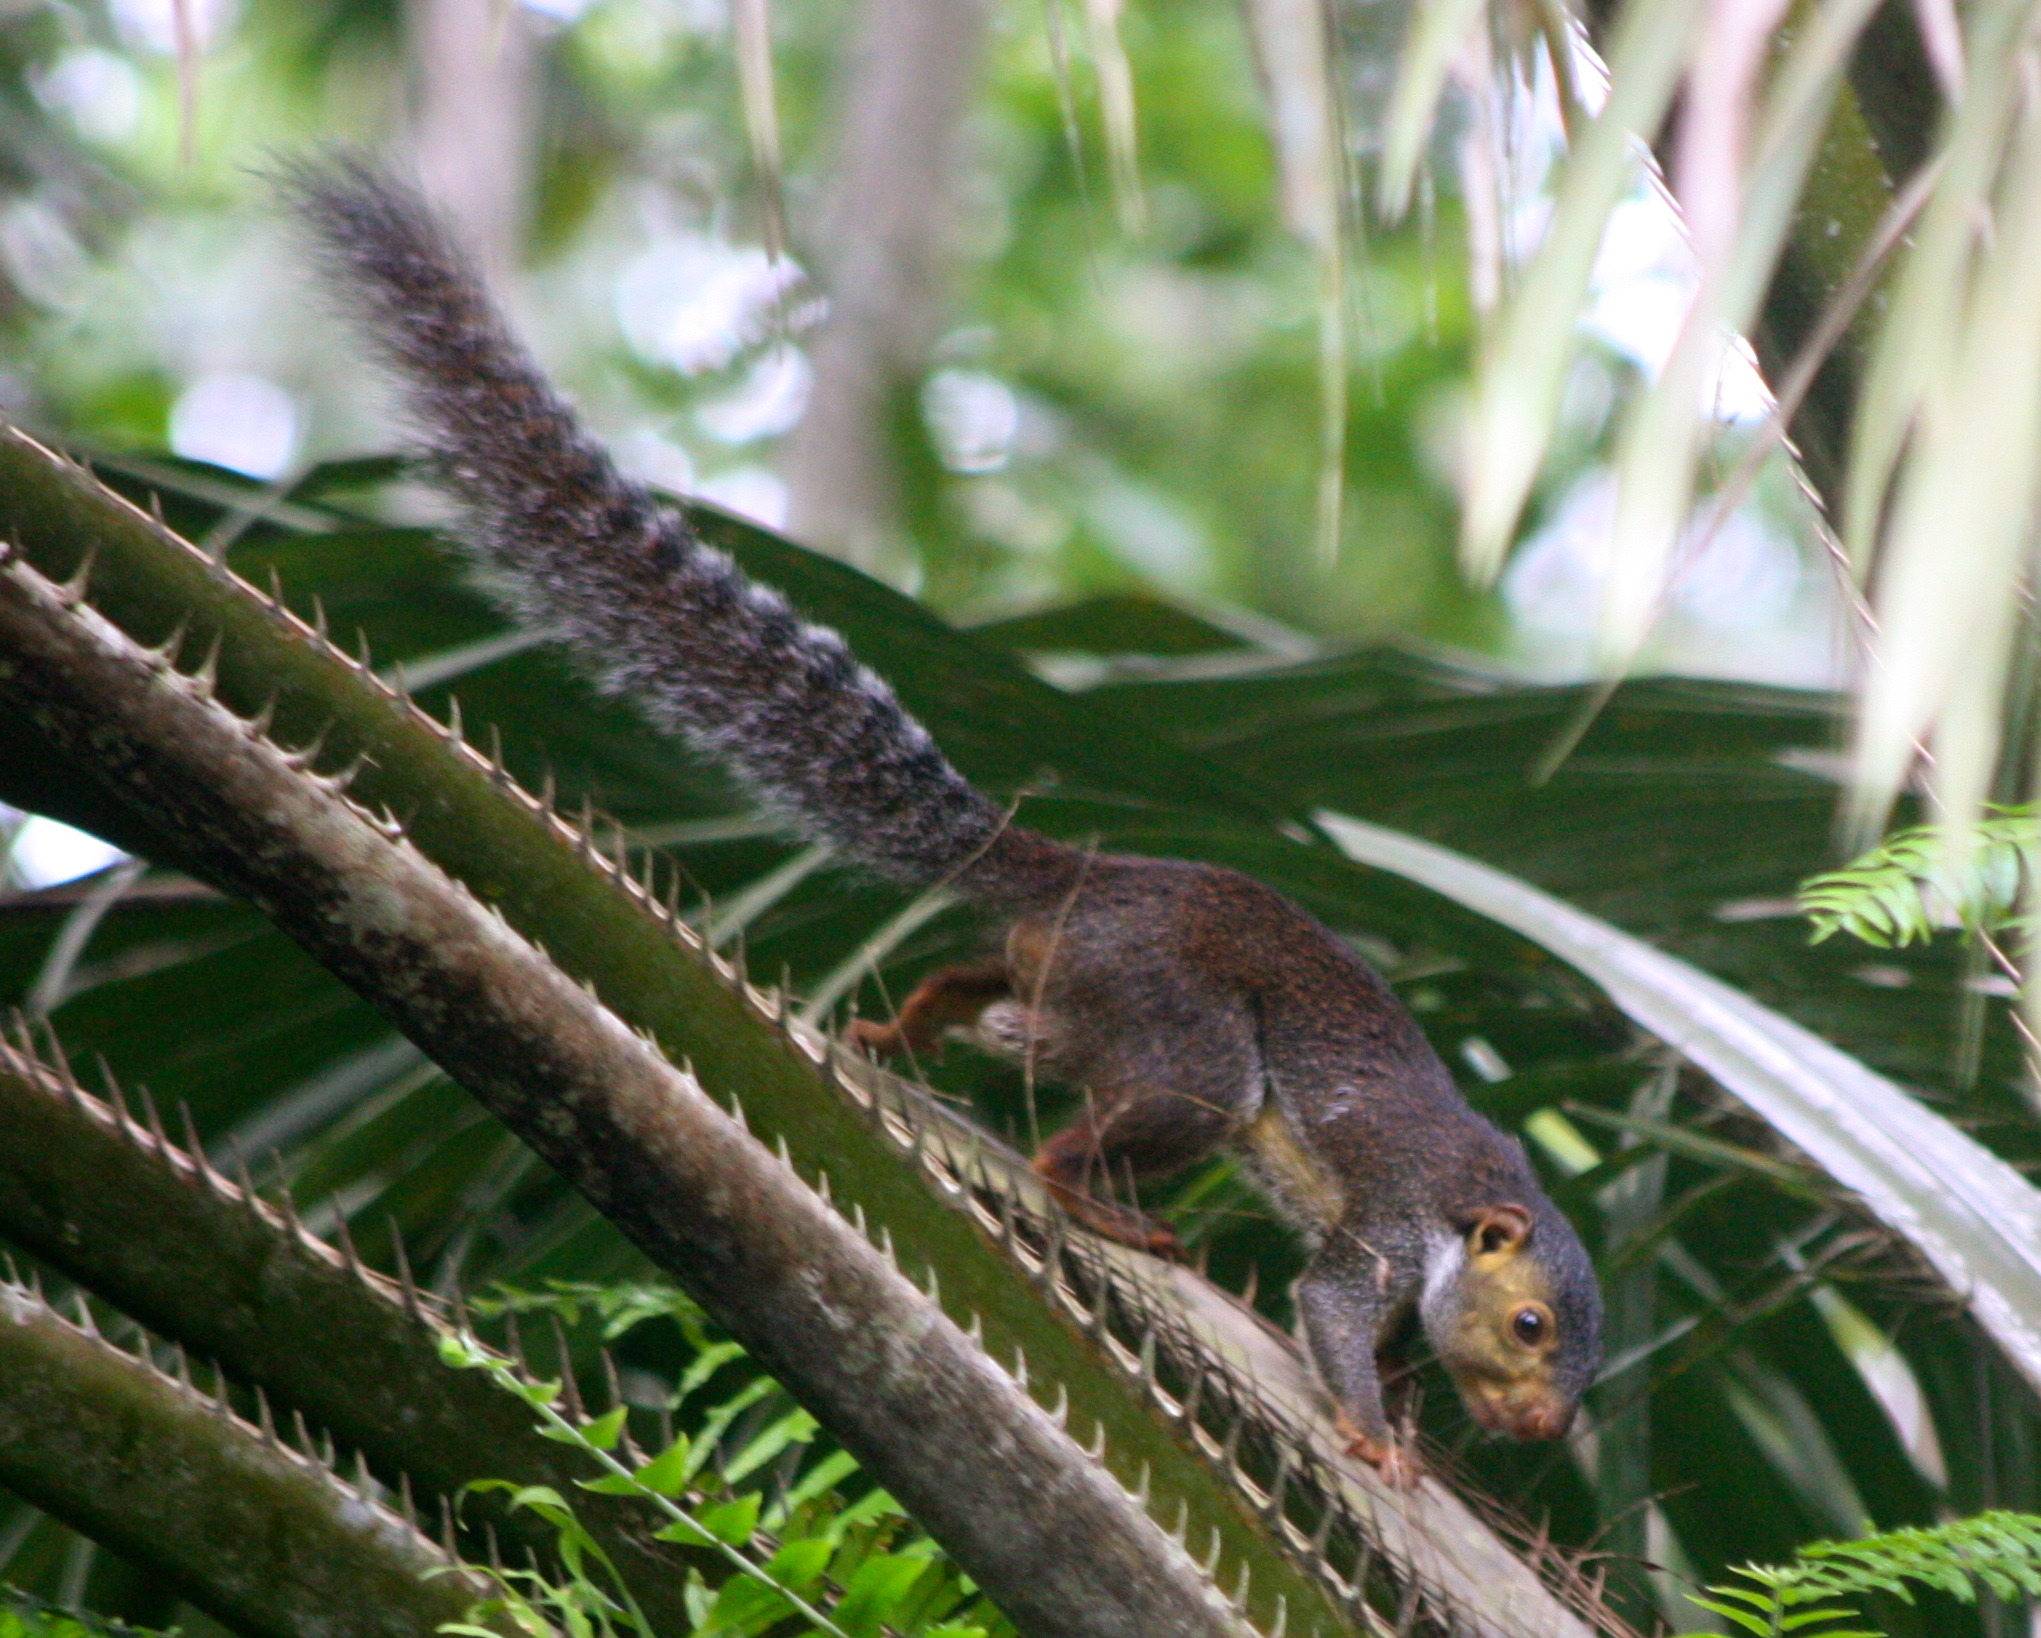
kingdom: Animalia
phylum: Chordata
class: Mammalia
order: Rodentia
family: Sciuridae
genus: Protoxerus
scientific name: Protoxerus stangeri
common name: Forest giant squirrel
